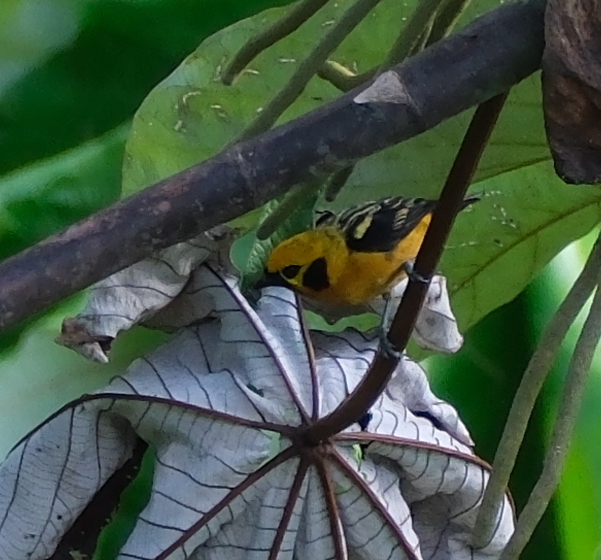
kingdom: Animalia
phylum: Chordata
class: Aves
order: Passeriformes
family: Thraupidae
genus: Tangara
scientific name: Tangara arthus
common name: Golden tanager
